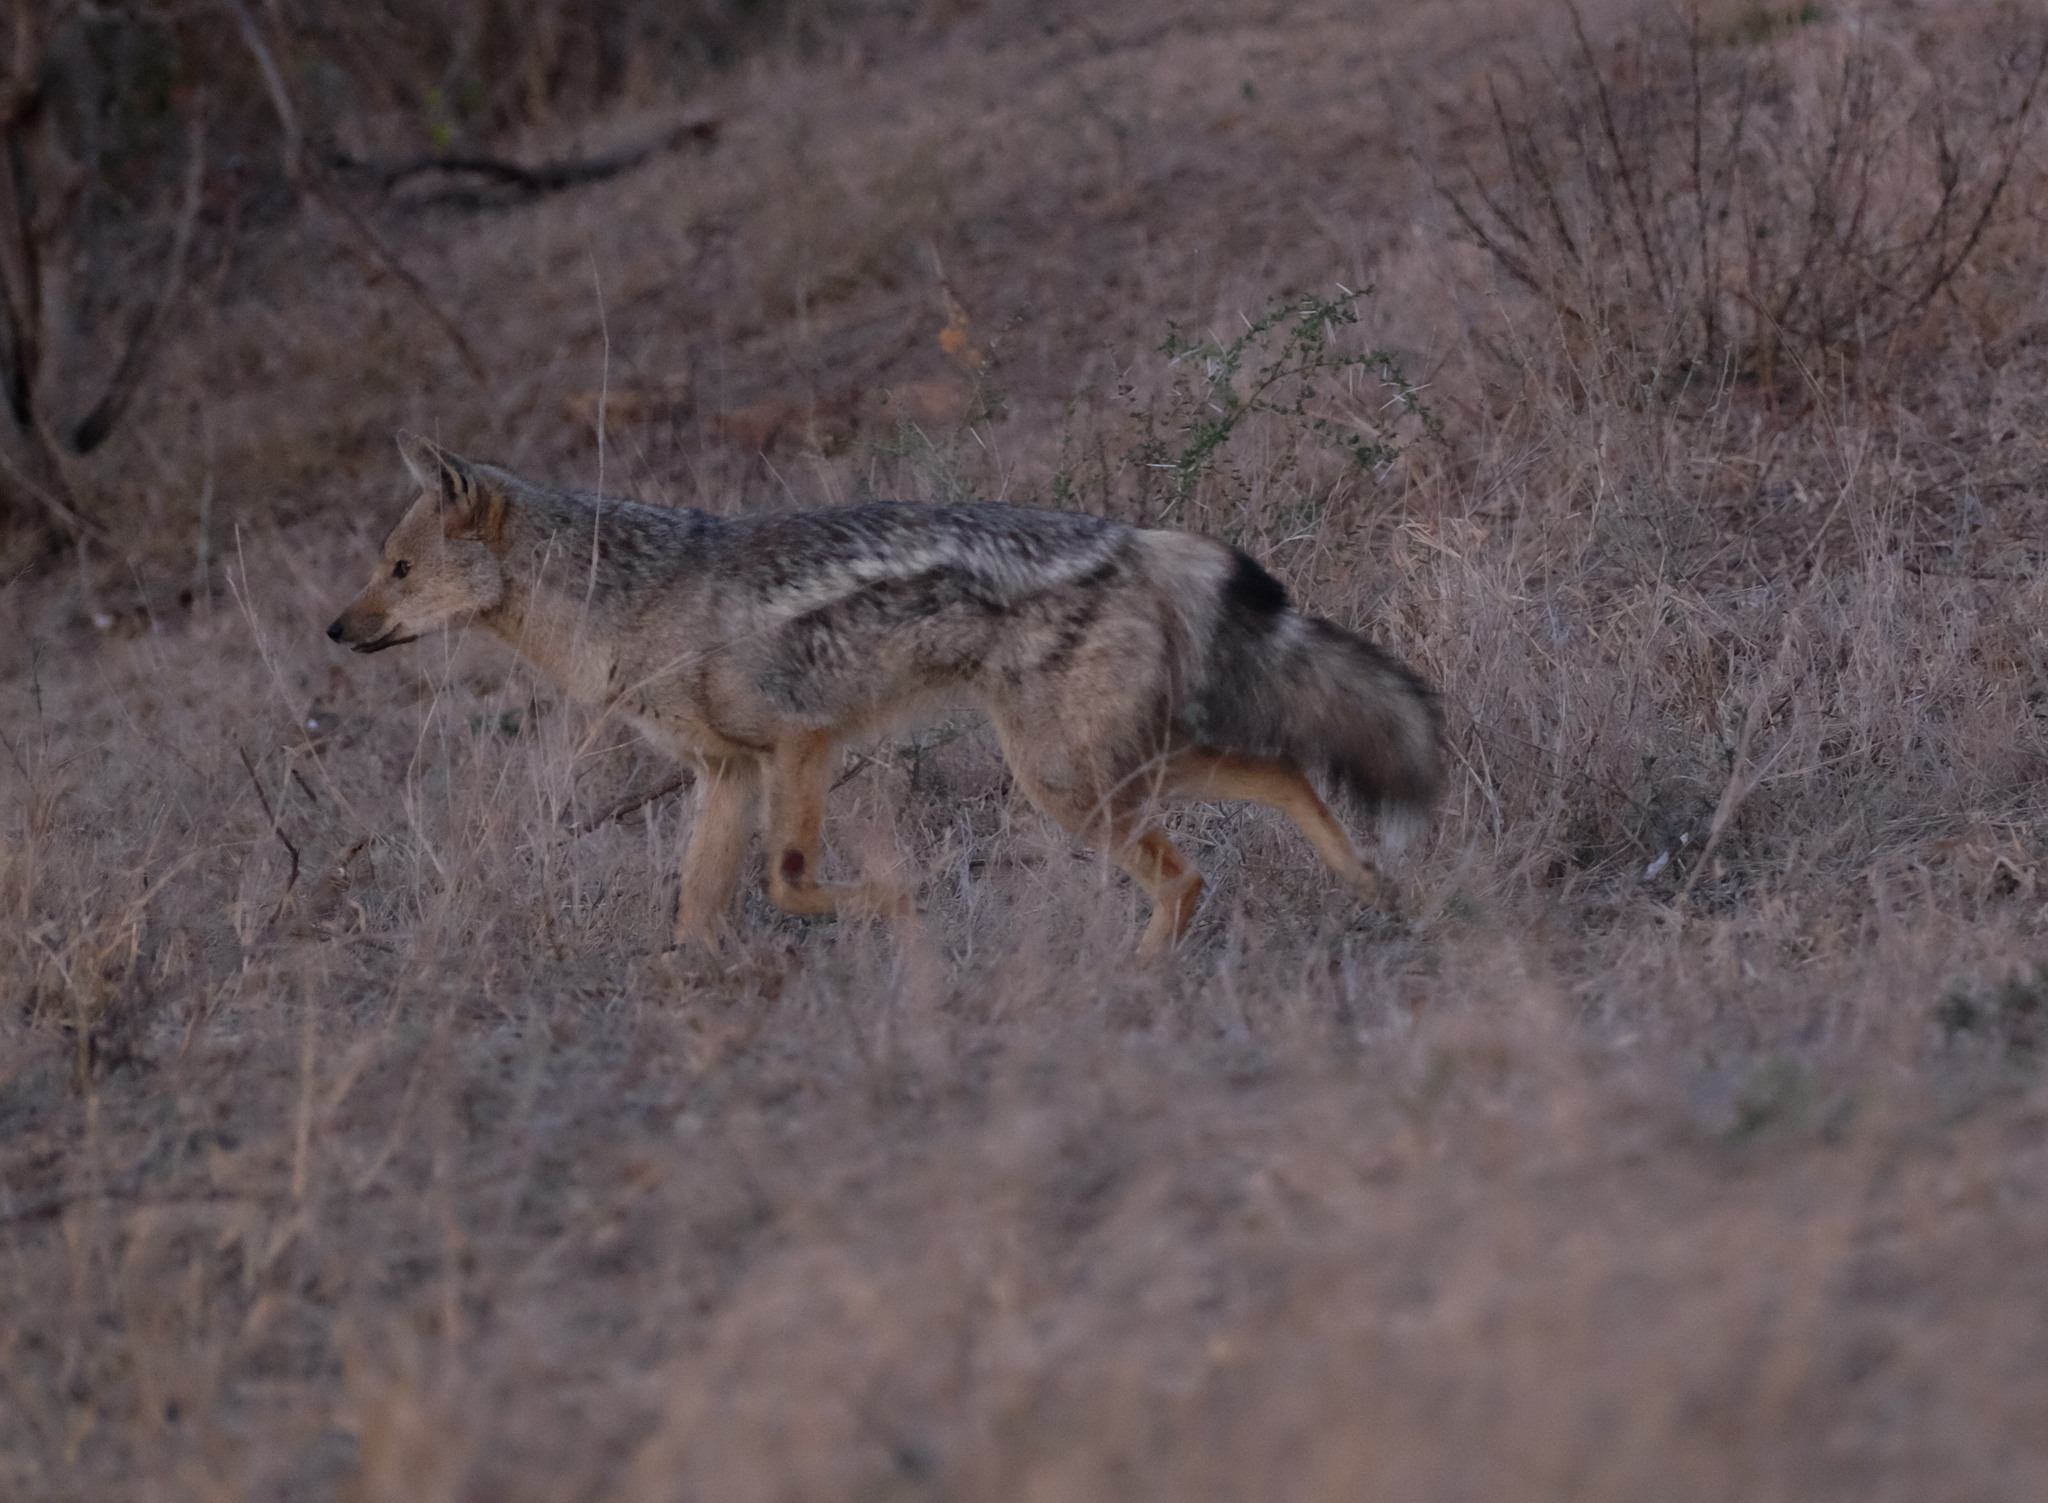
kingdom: Animalia
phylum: Chordata
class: Mammalia
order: Carnivora
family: Canidae
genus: Lupulella
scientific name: Lupulella
